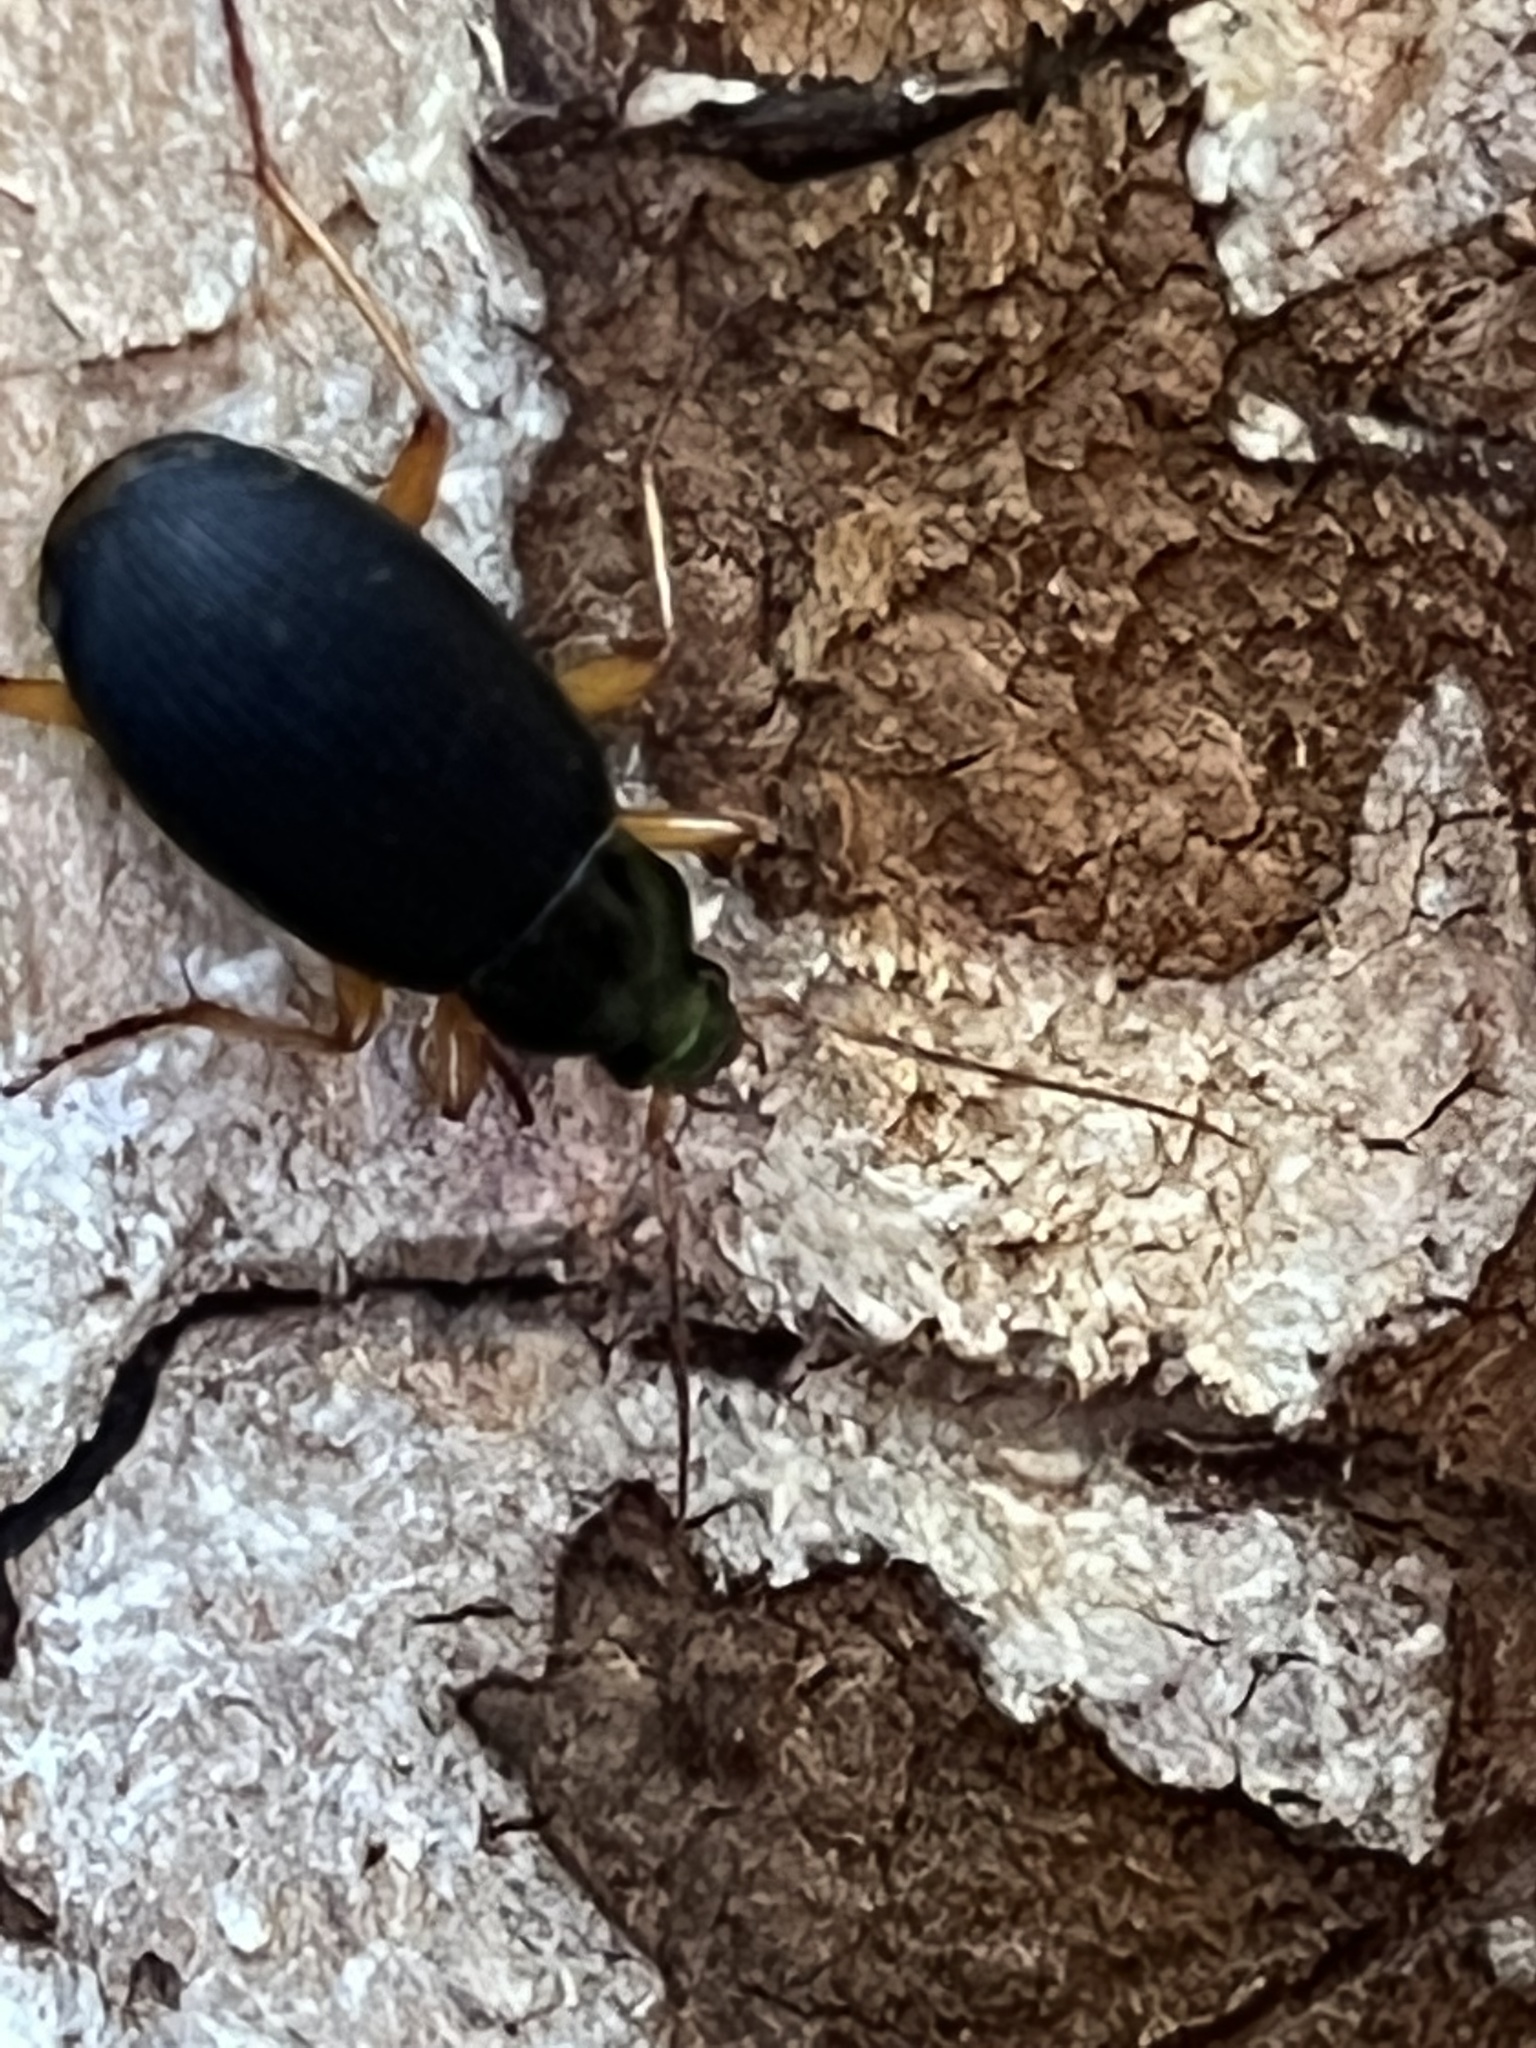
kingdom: Animalia
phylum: Arthropoda
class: Insecta
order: Coleoptera
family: Carabidae
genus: Chlaenius
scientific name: Chlaenius aestivus
